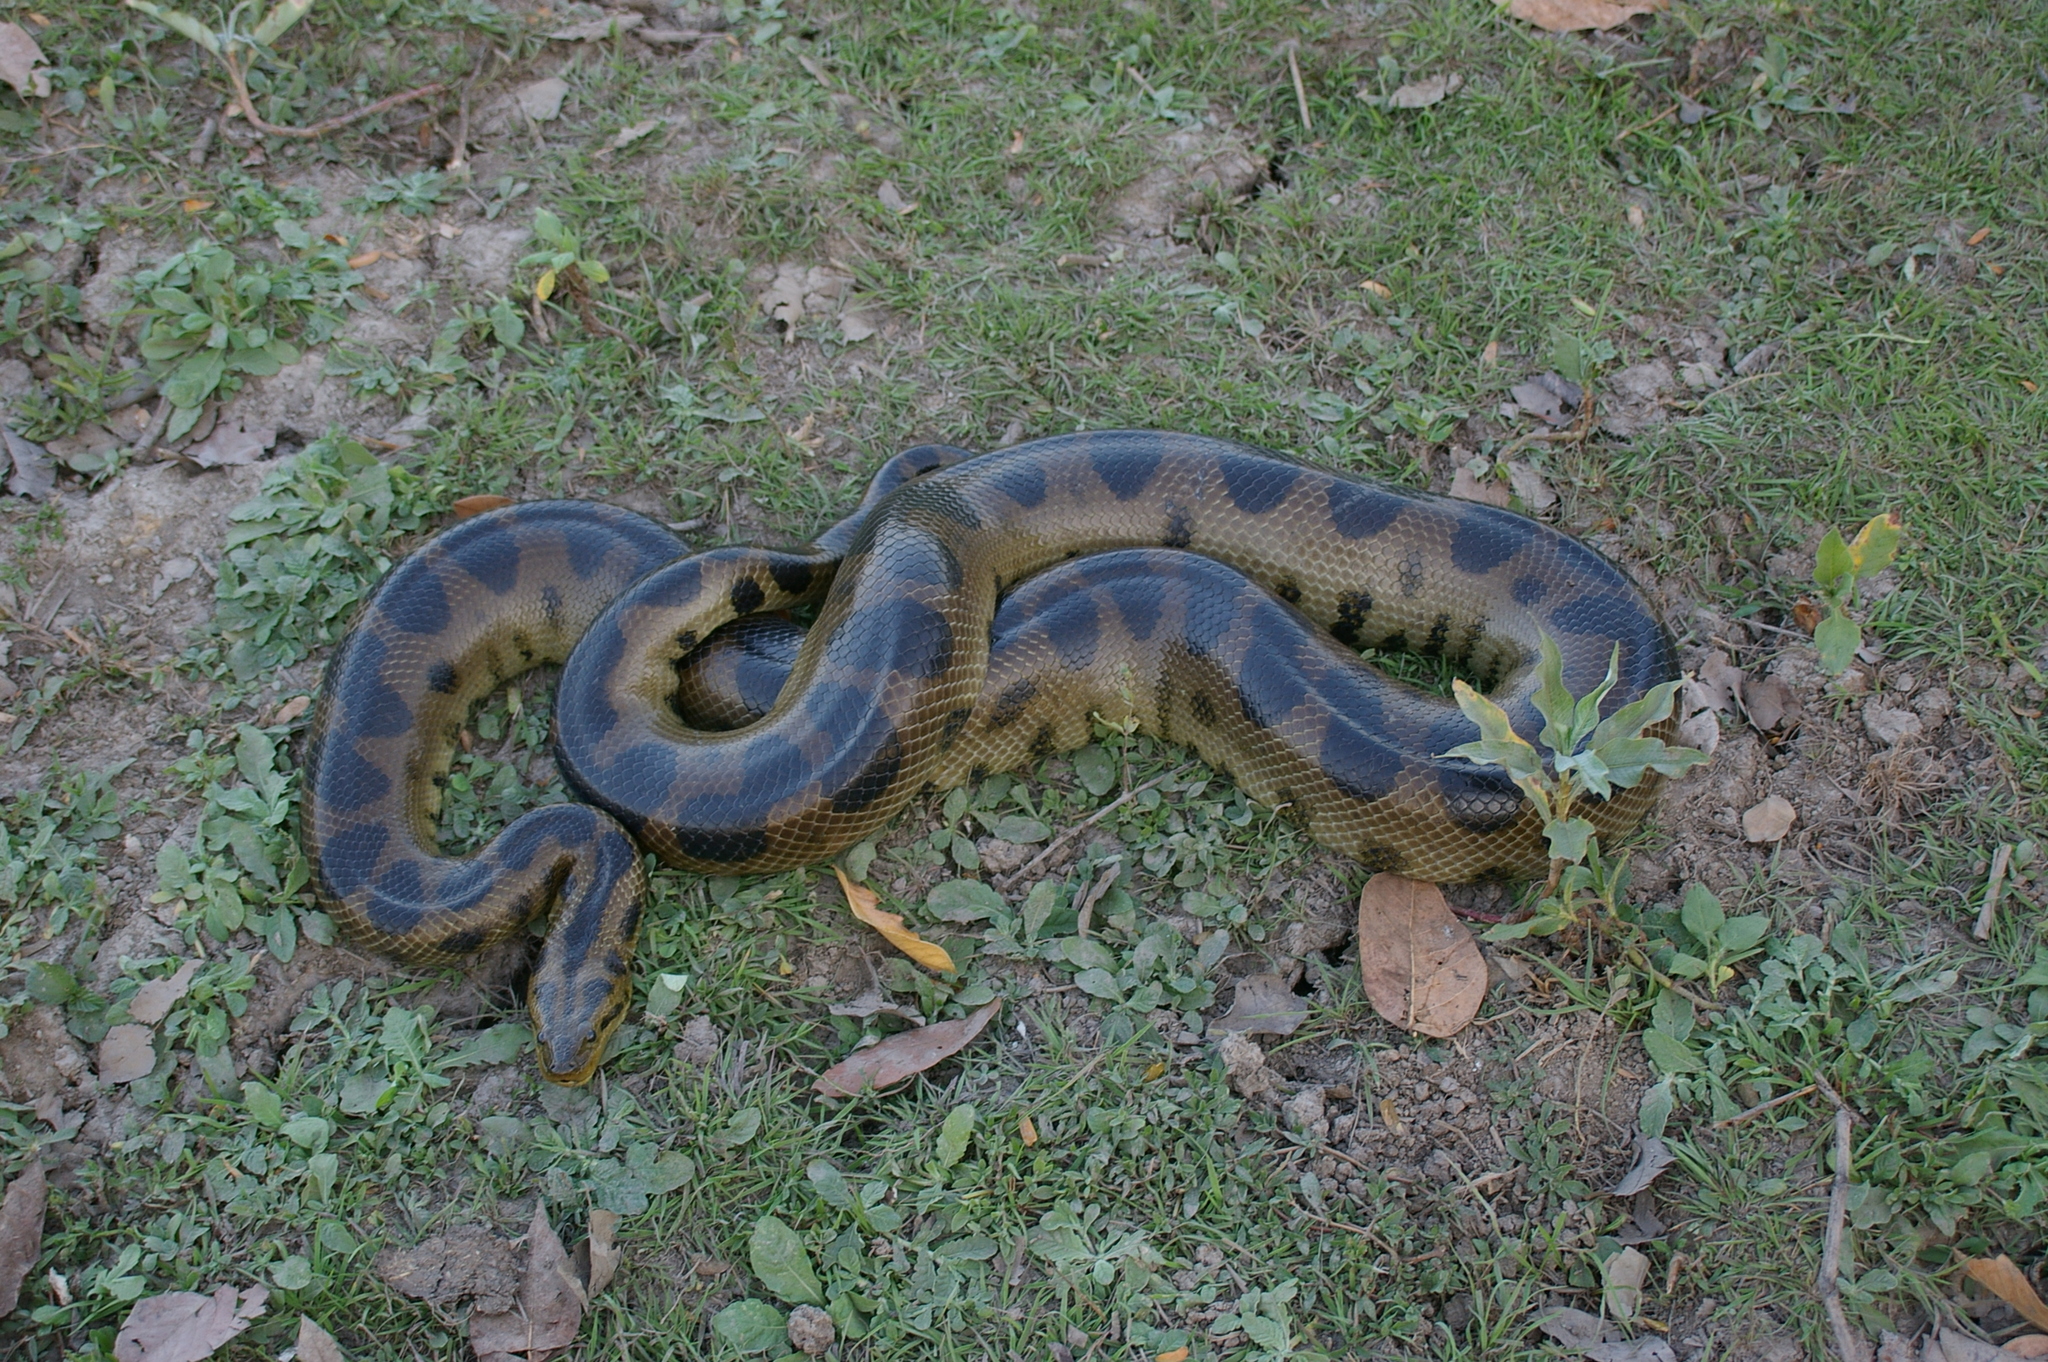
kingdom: Animalia
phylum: Chordata
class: Squamata
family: Boidae
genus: Eunectes
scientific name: Eunectes beniensis
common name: Beni anaconda
